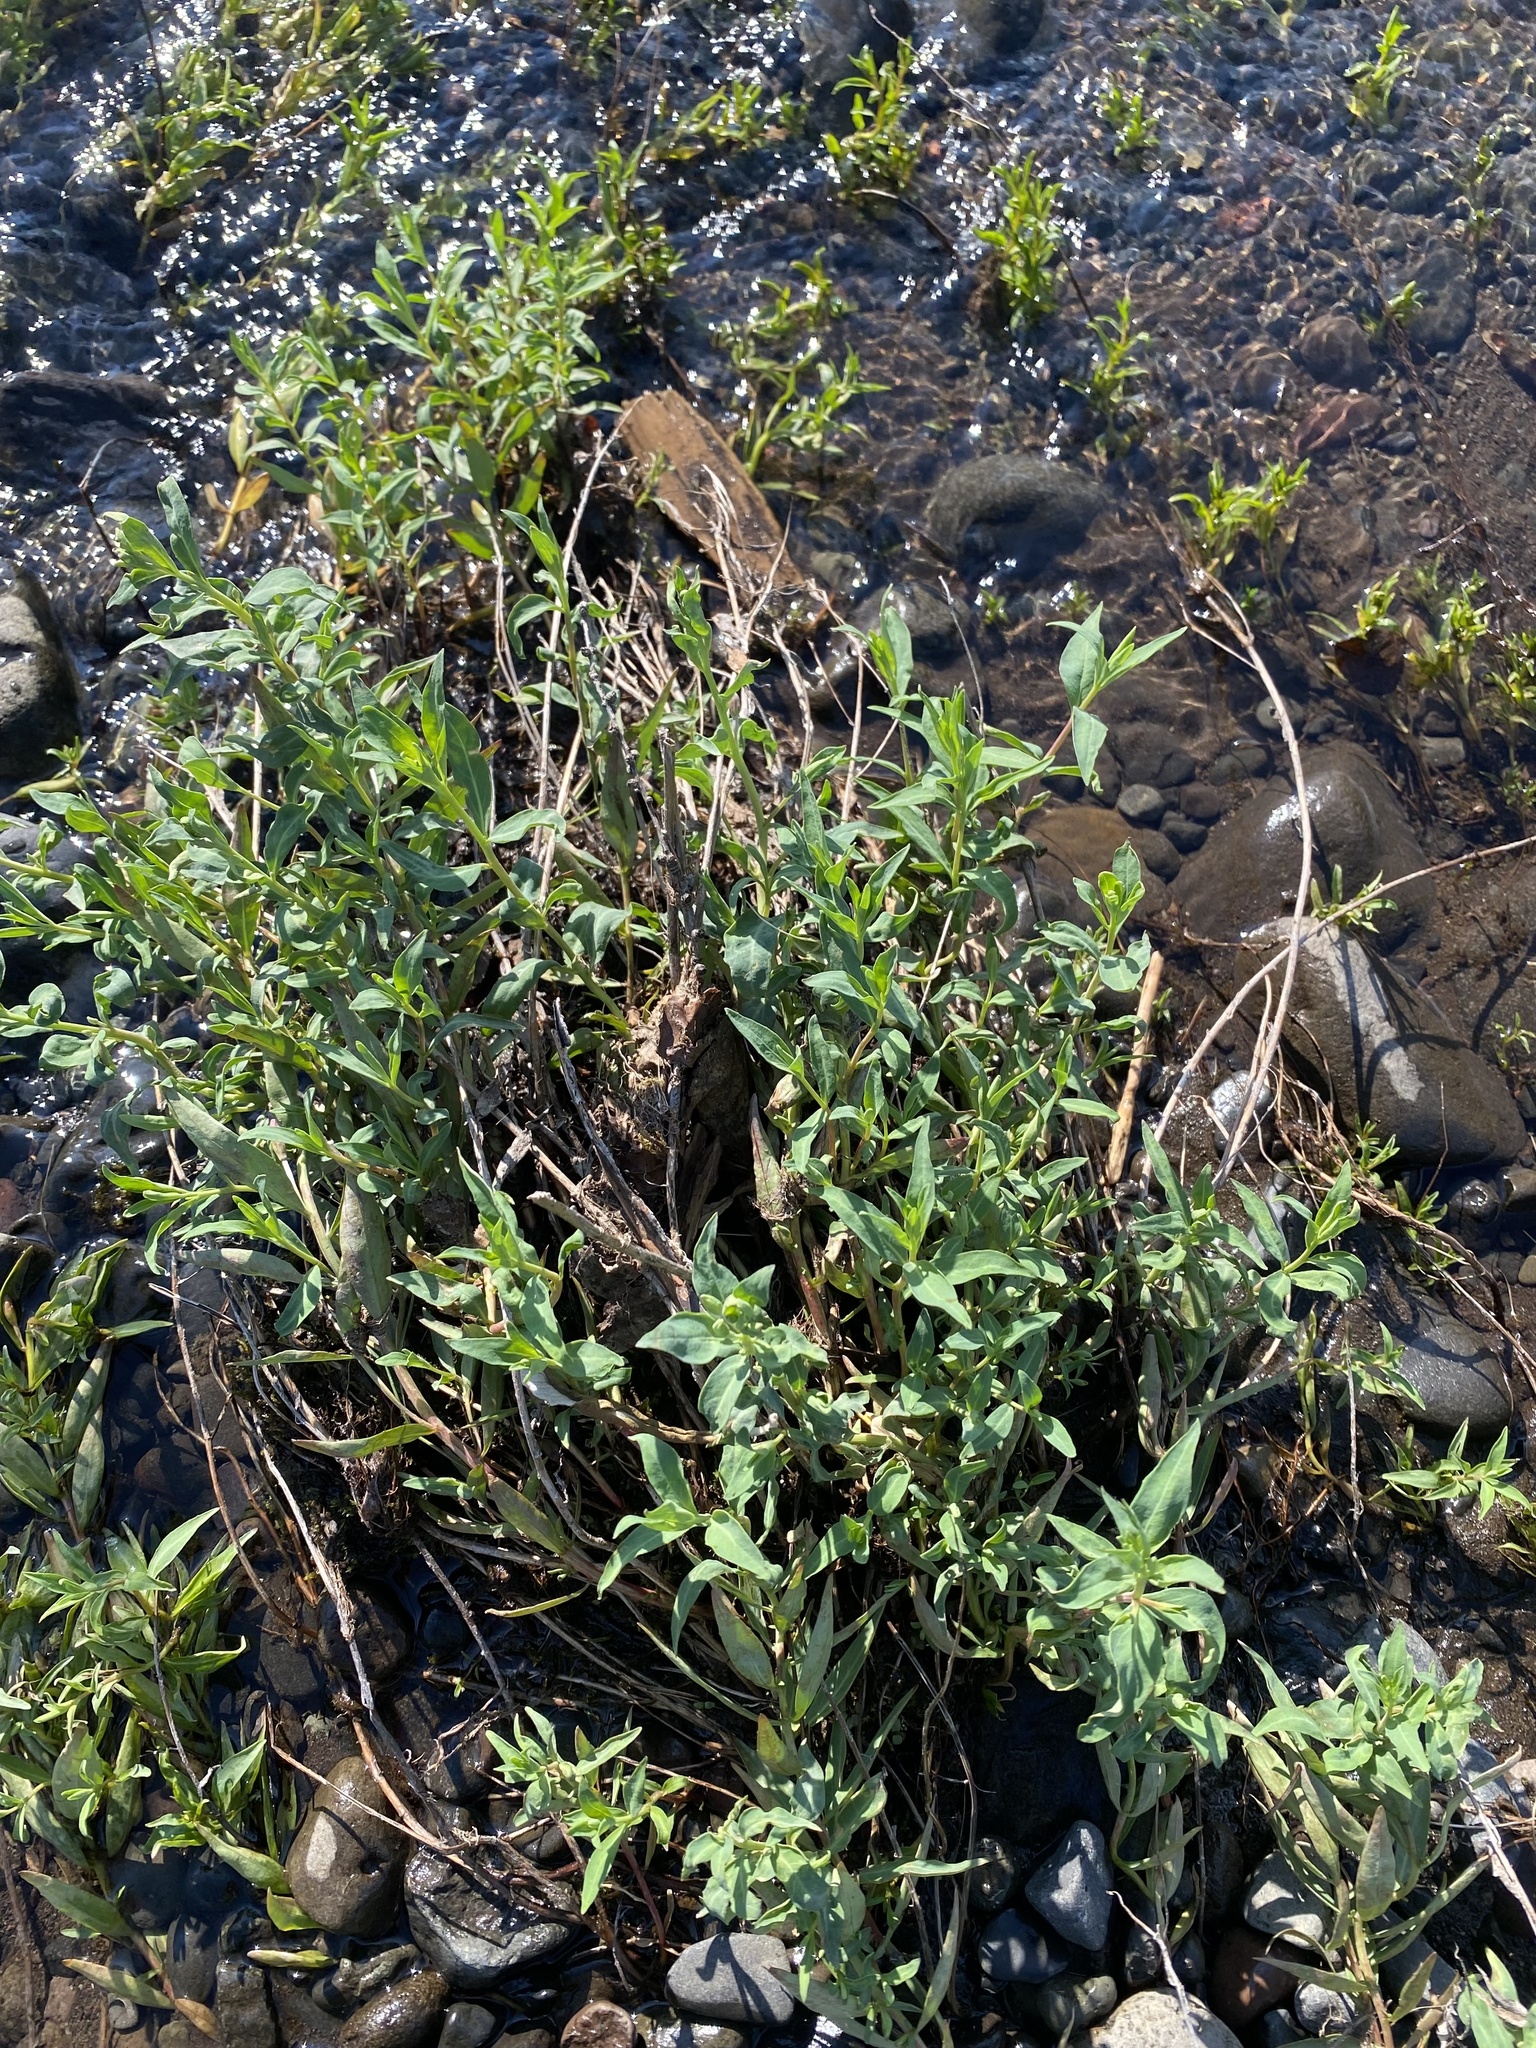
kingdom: Plantae
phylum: Tracheophyta
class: Magnoliopsida
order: Myrtales
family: Onagraceae
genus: Chamaenerion
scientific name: Chamaenerion latifolium
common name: Dwarf fireweed
